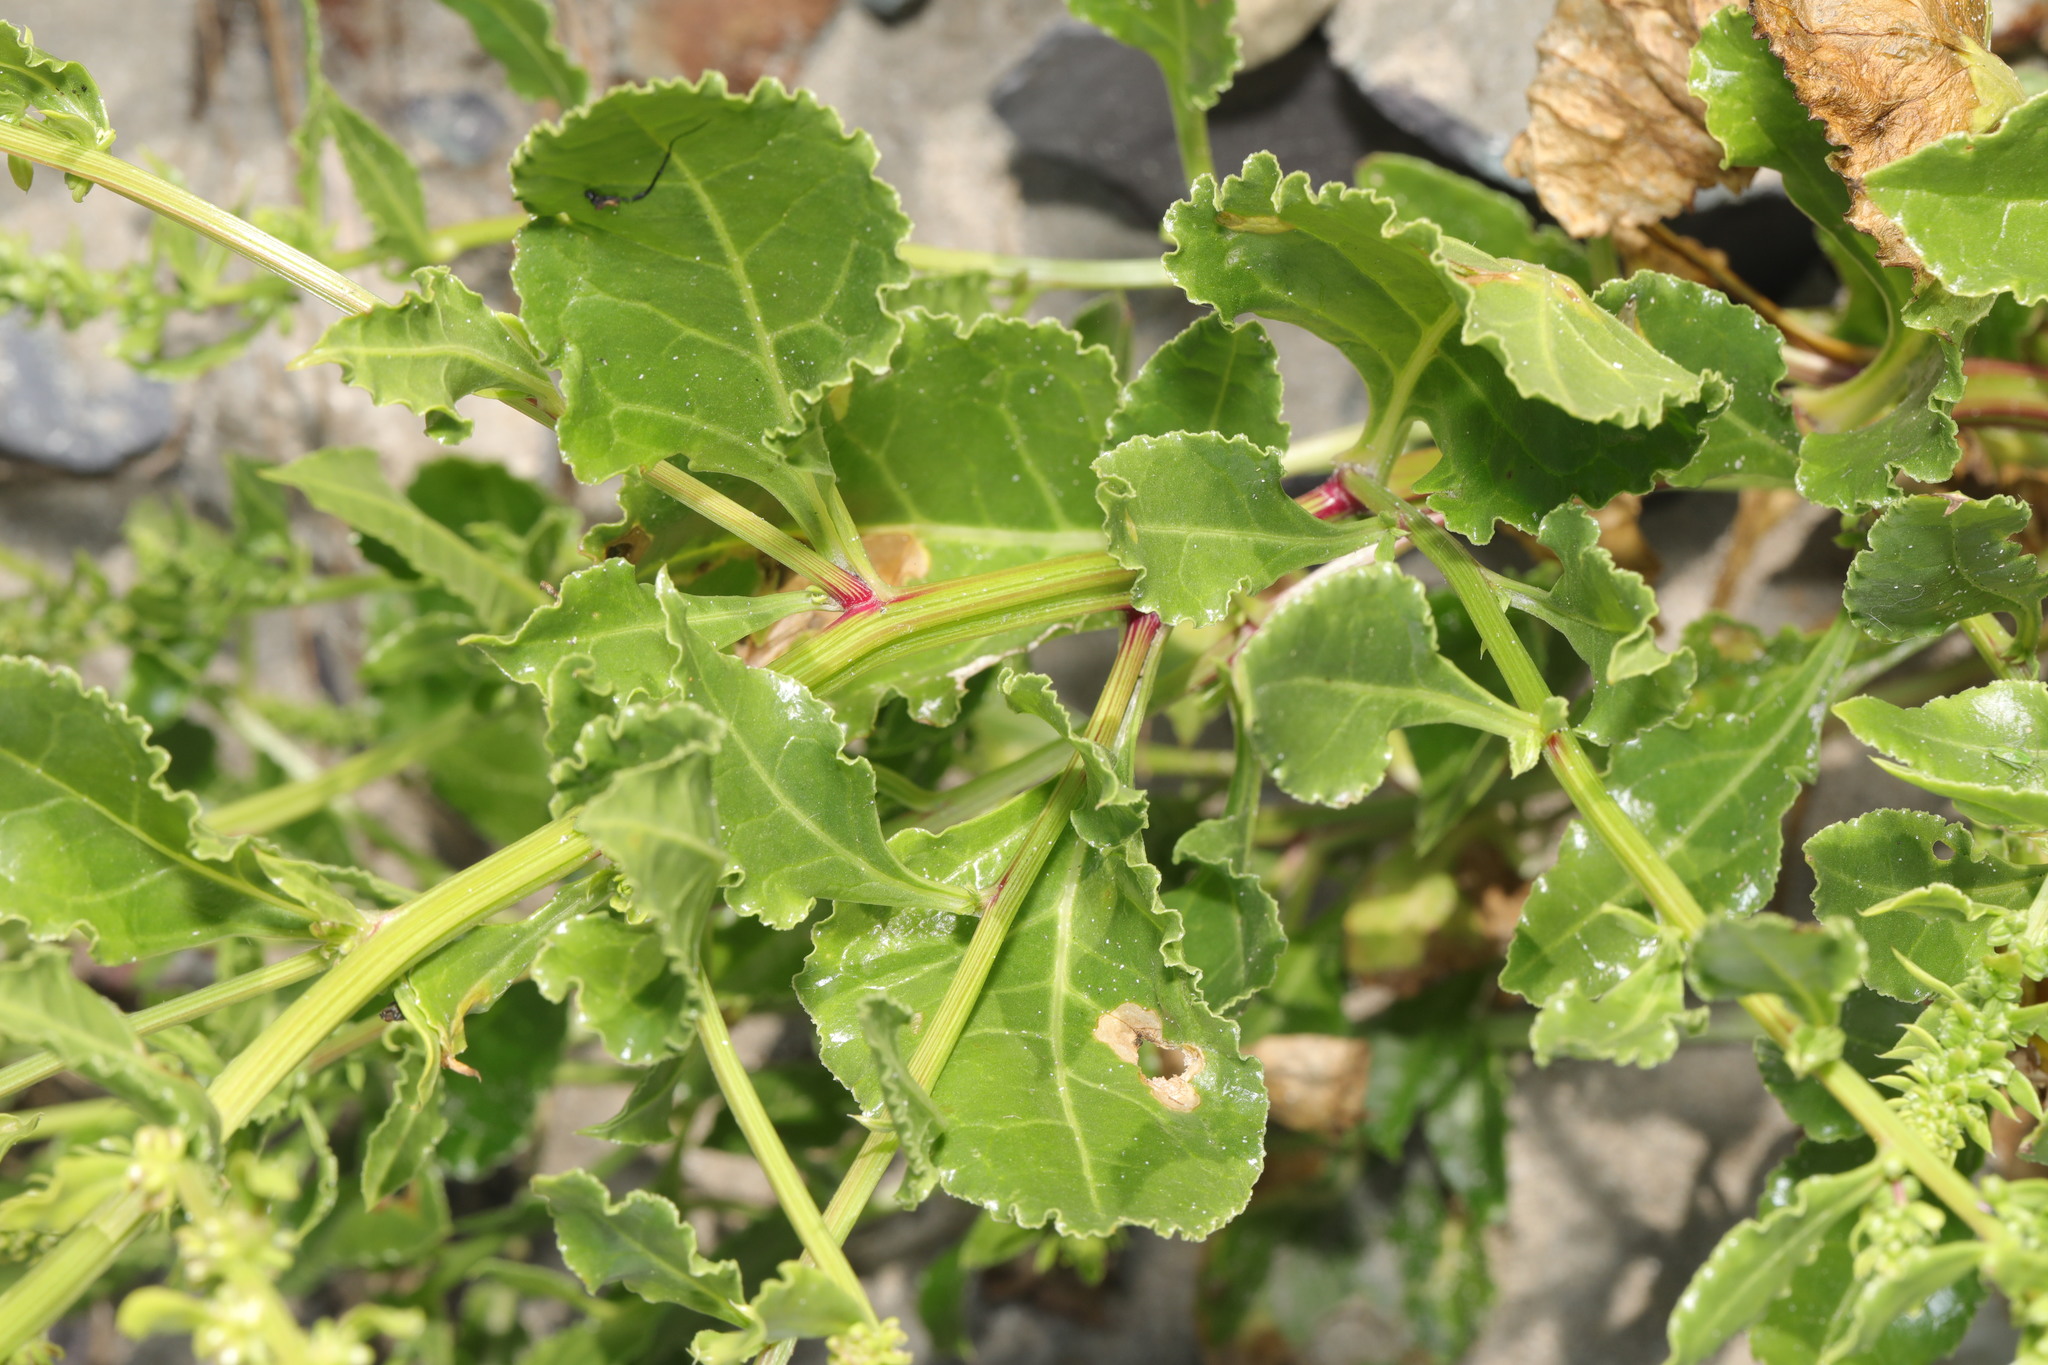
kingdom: Plantae
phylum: Tracheophyta
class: Magnoliopsida
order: Caryophyllales
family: Amaranthaceae
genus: Beta
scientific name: Beta vulgaris
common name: Beet
